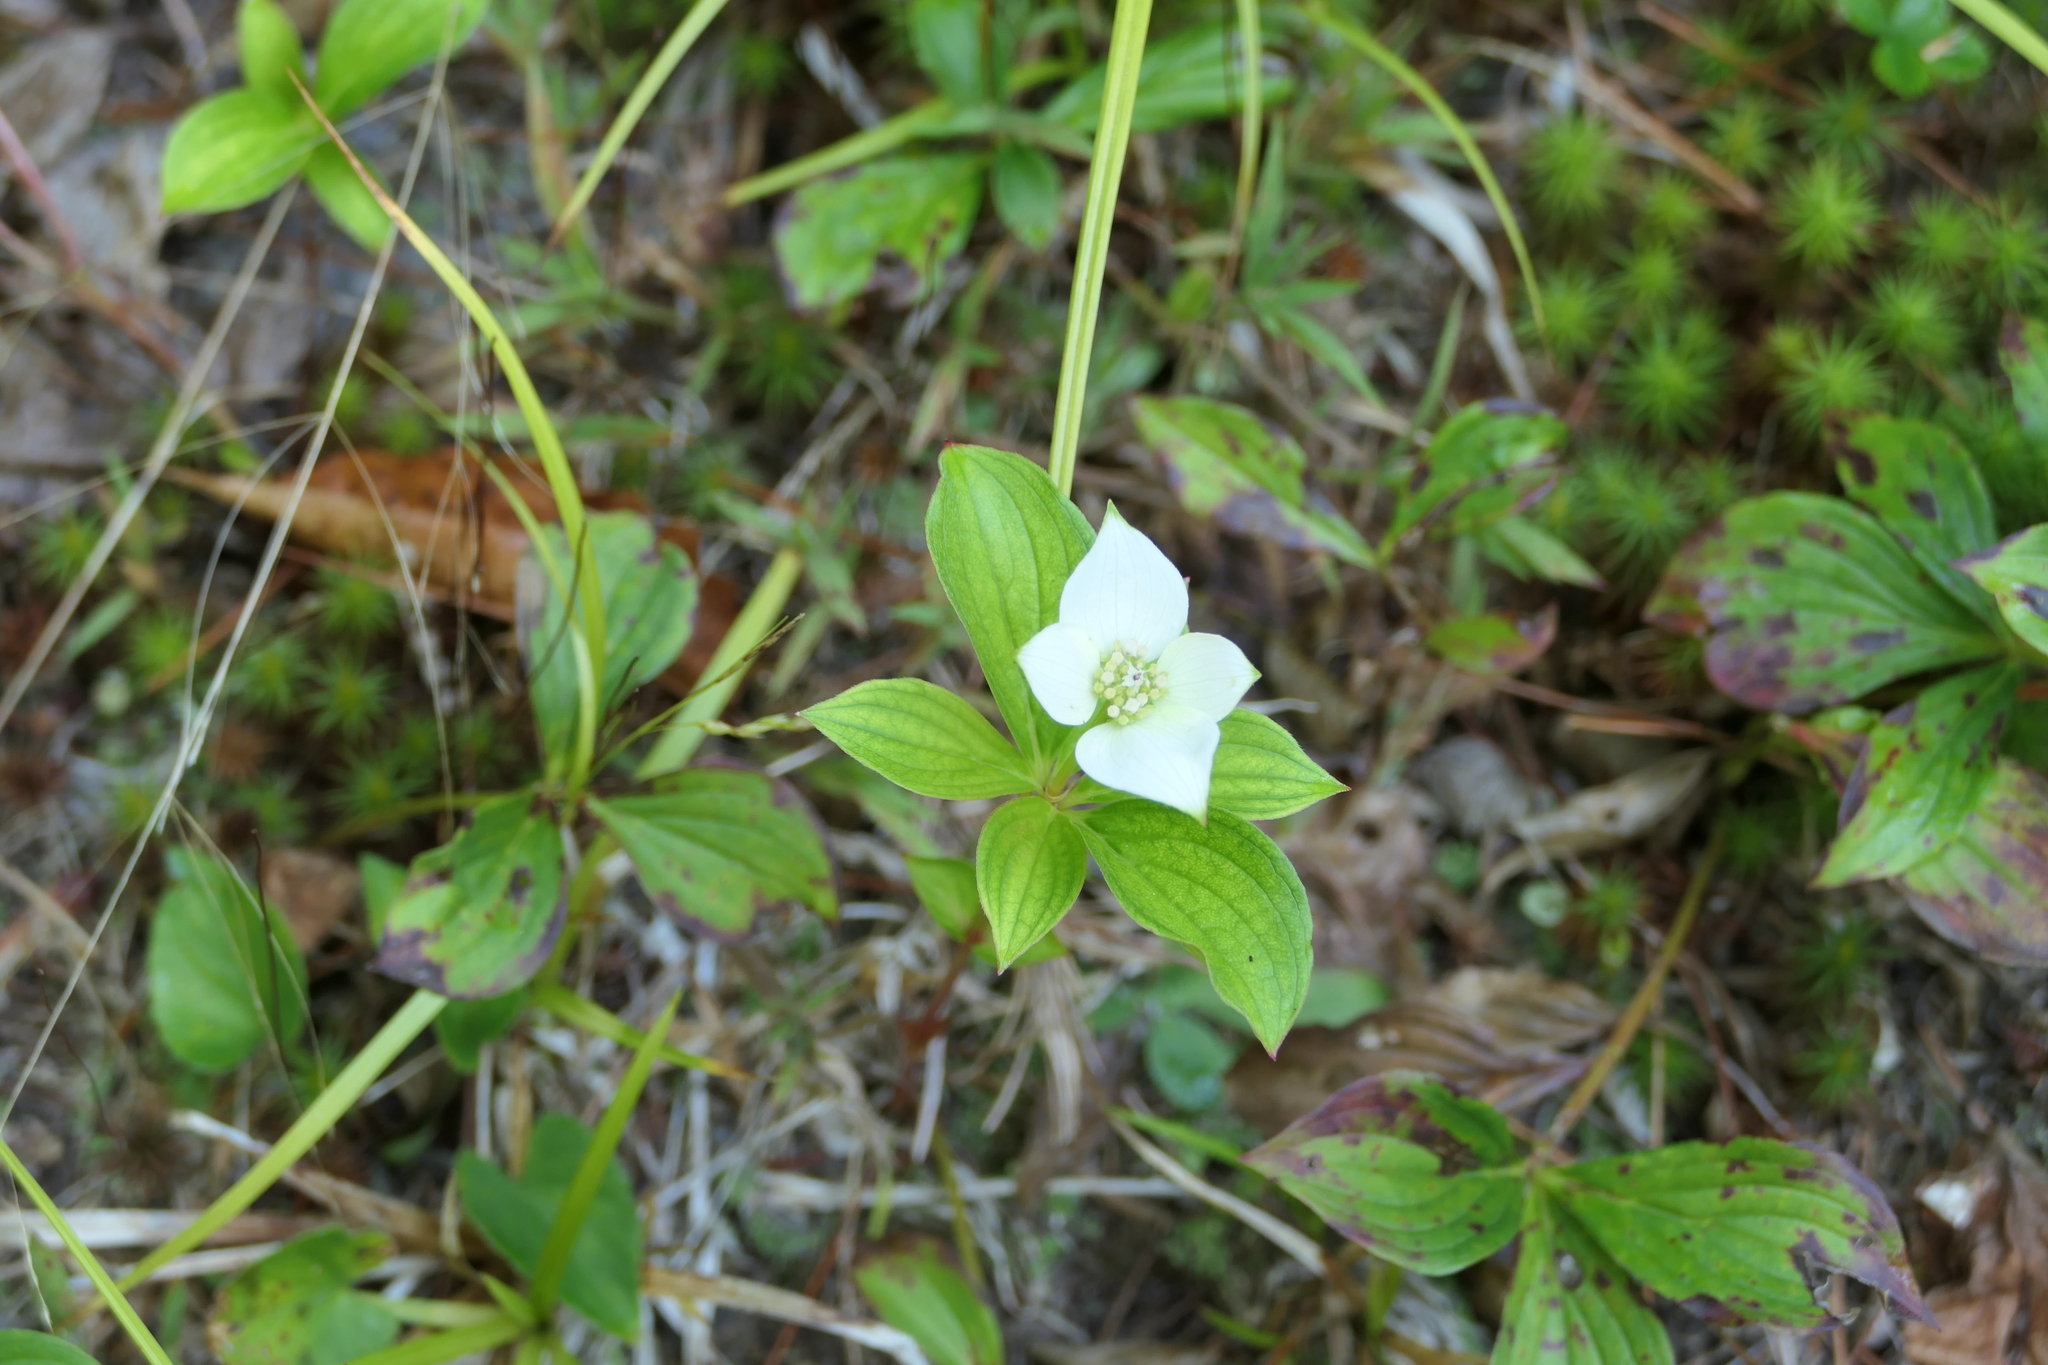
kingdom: Plantae
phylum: Tracheophyta
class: Magnoliopsida
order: Cornales
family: Cornaceae
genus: Cornus
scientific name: Cornus canadensis
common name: Creeping dogwood
